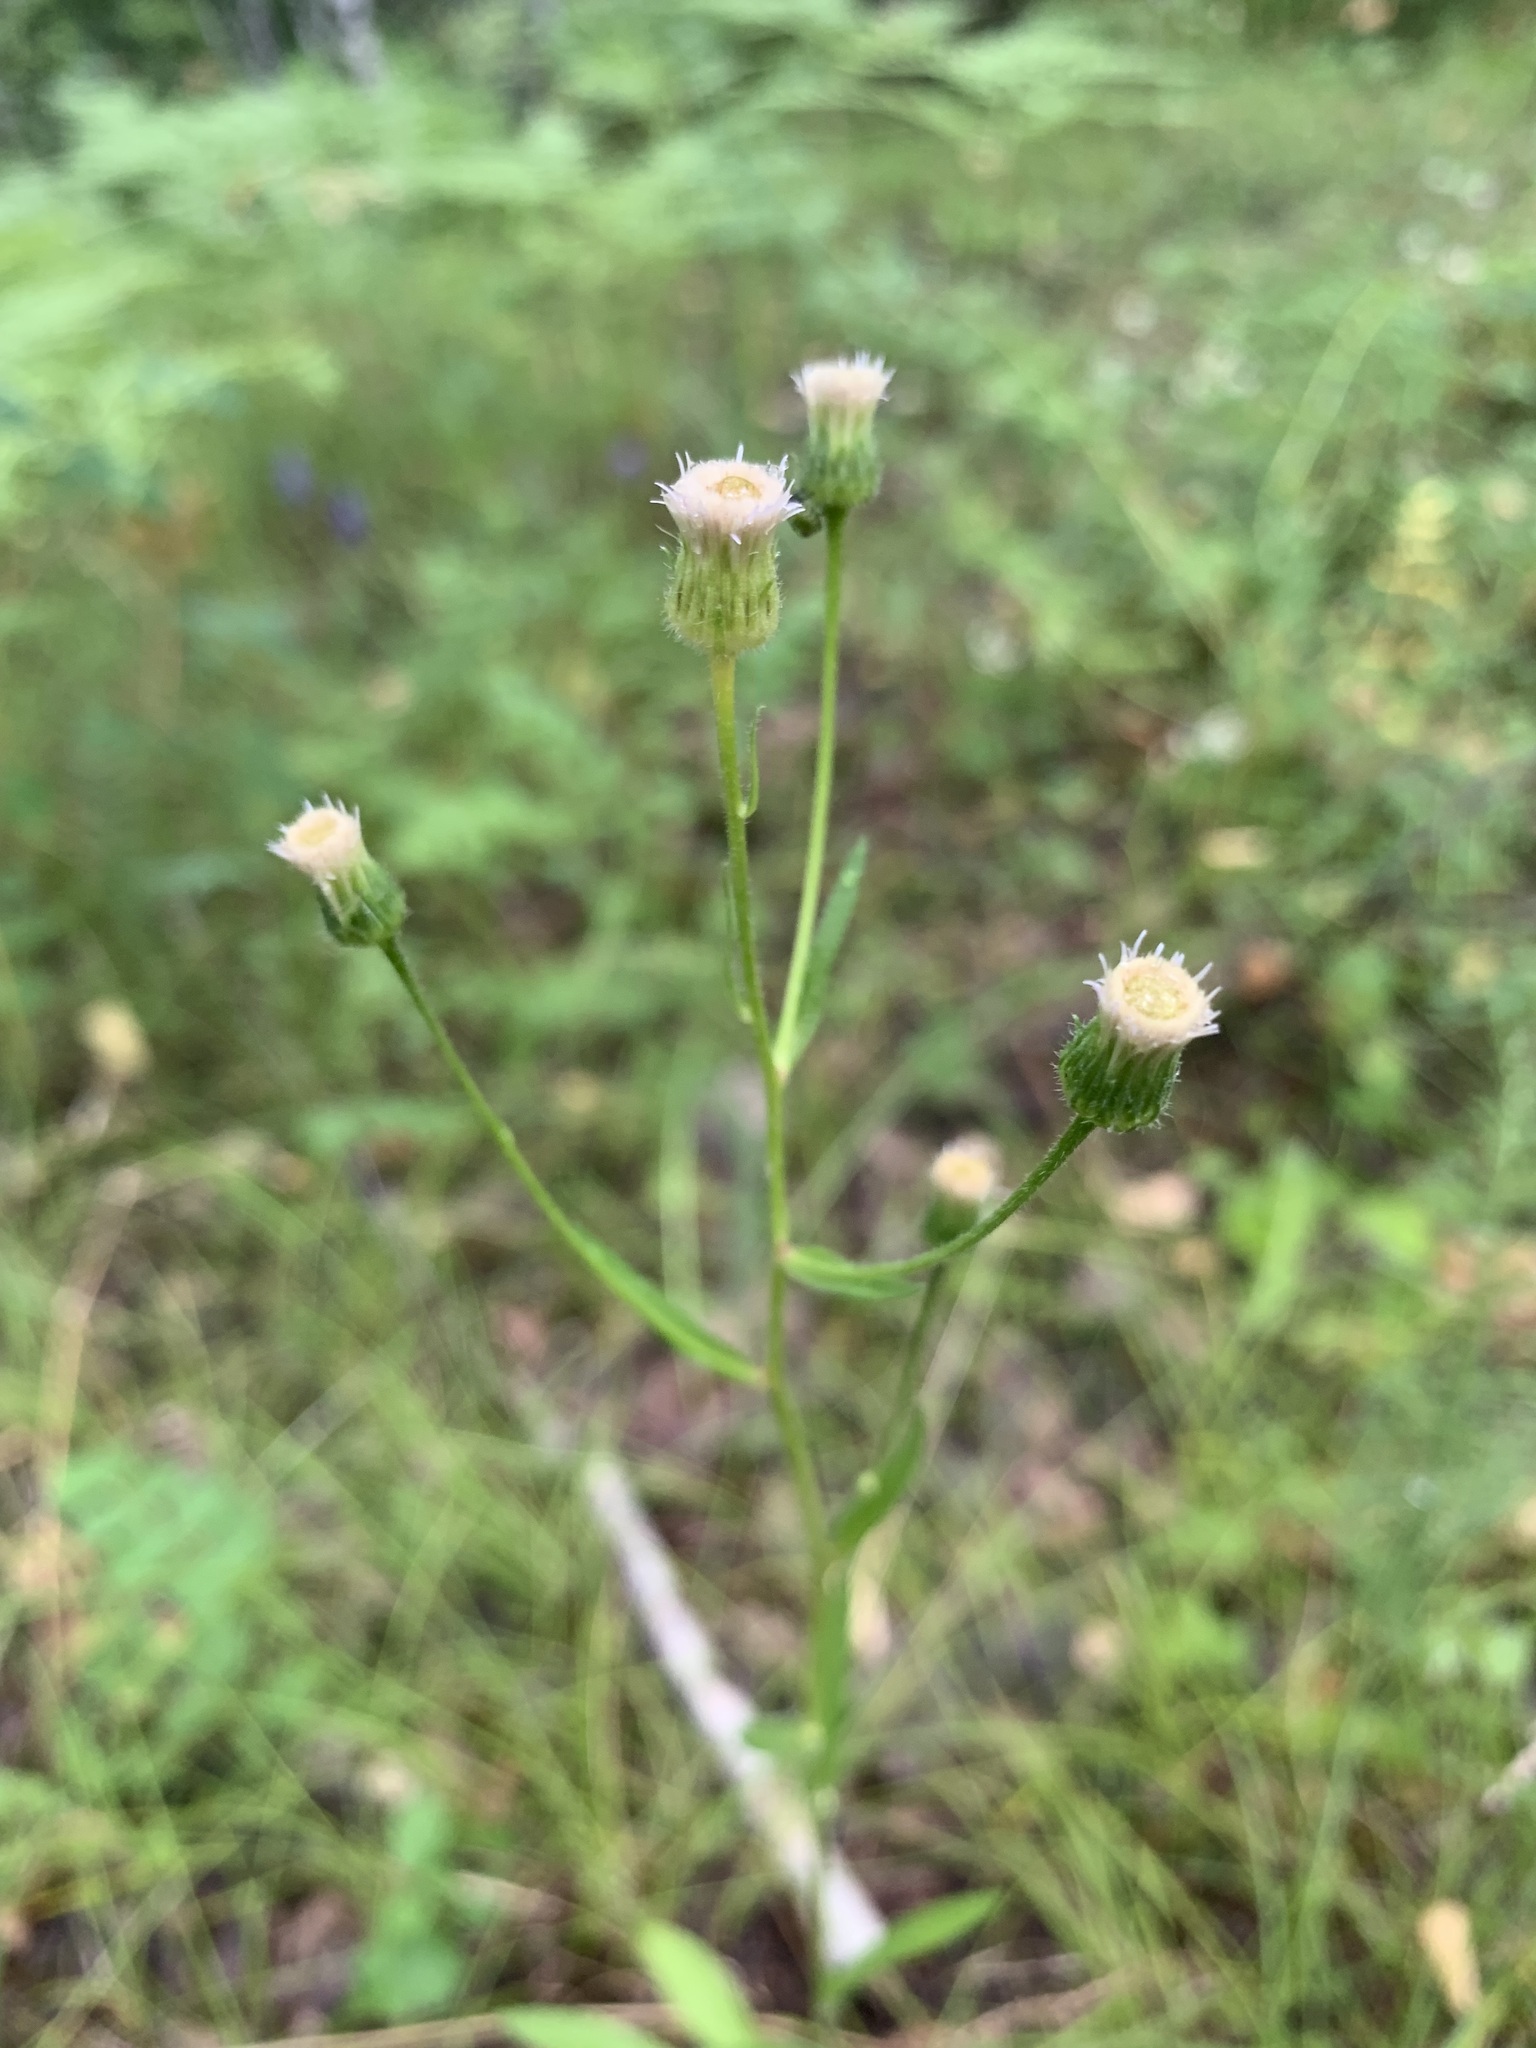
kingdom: Plantae
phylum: Tracheophyta
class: Magnoliopsida
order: Asterales
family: Asteraceae
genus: Erigeron
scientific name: Erigeron acris
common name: Blue fleabane
